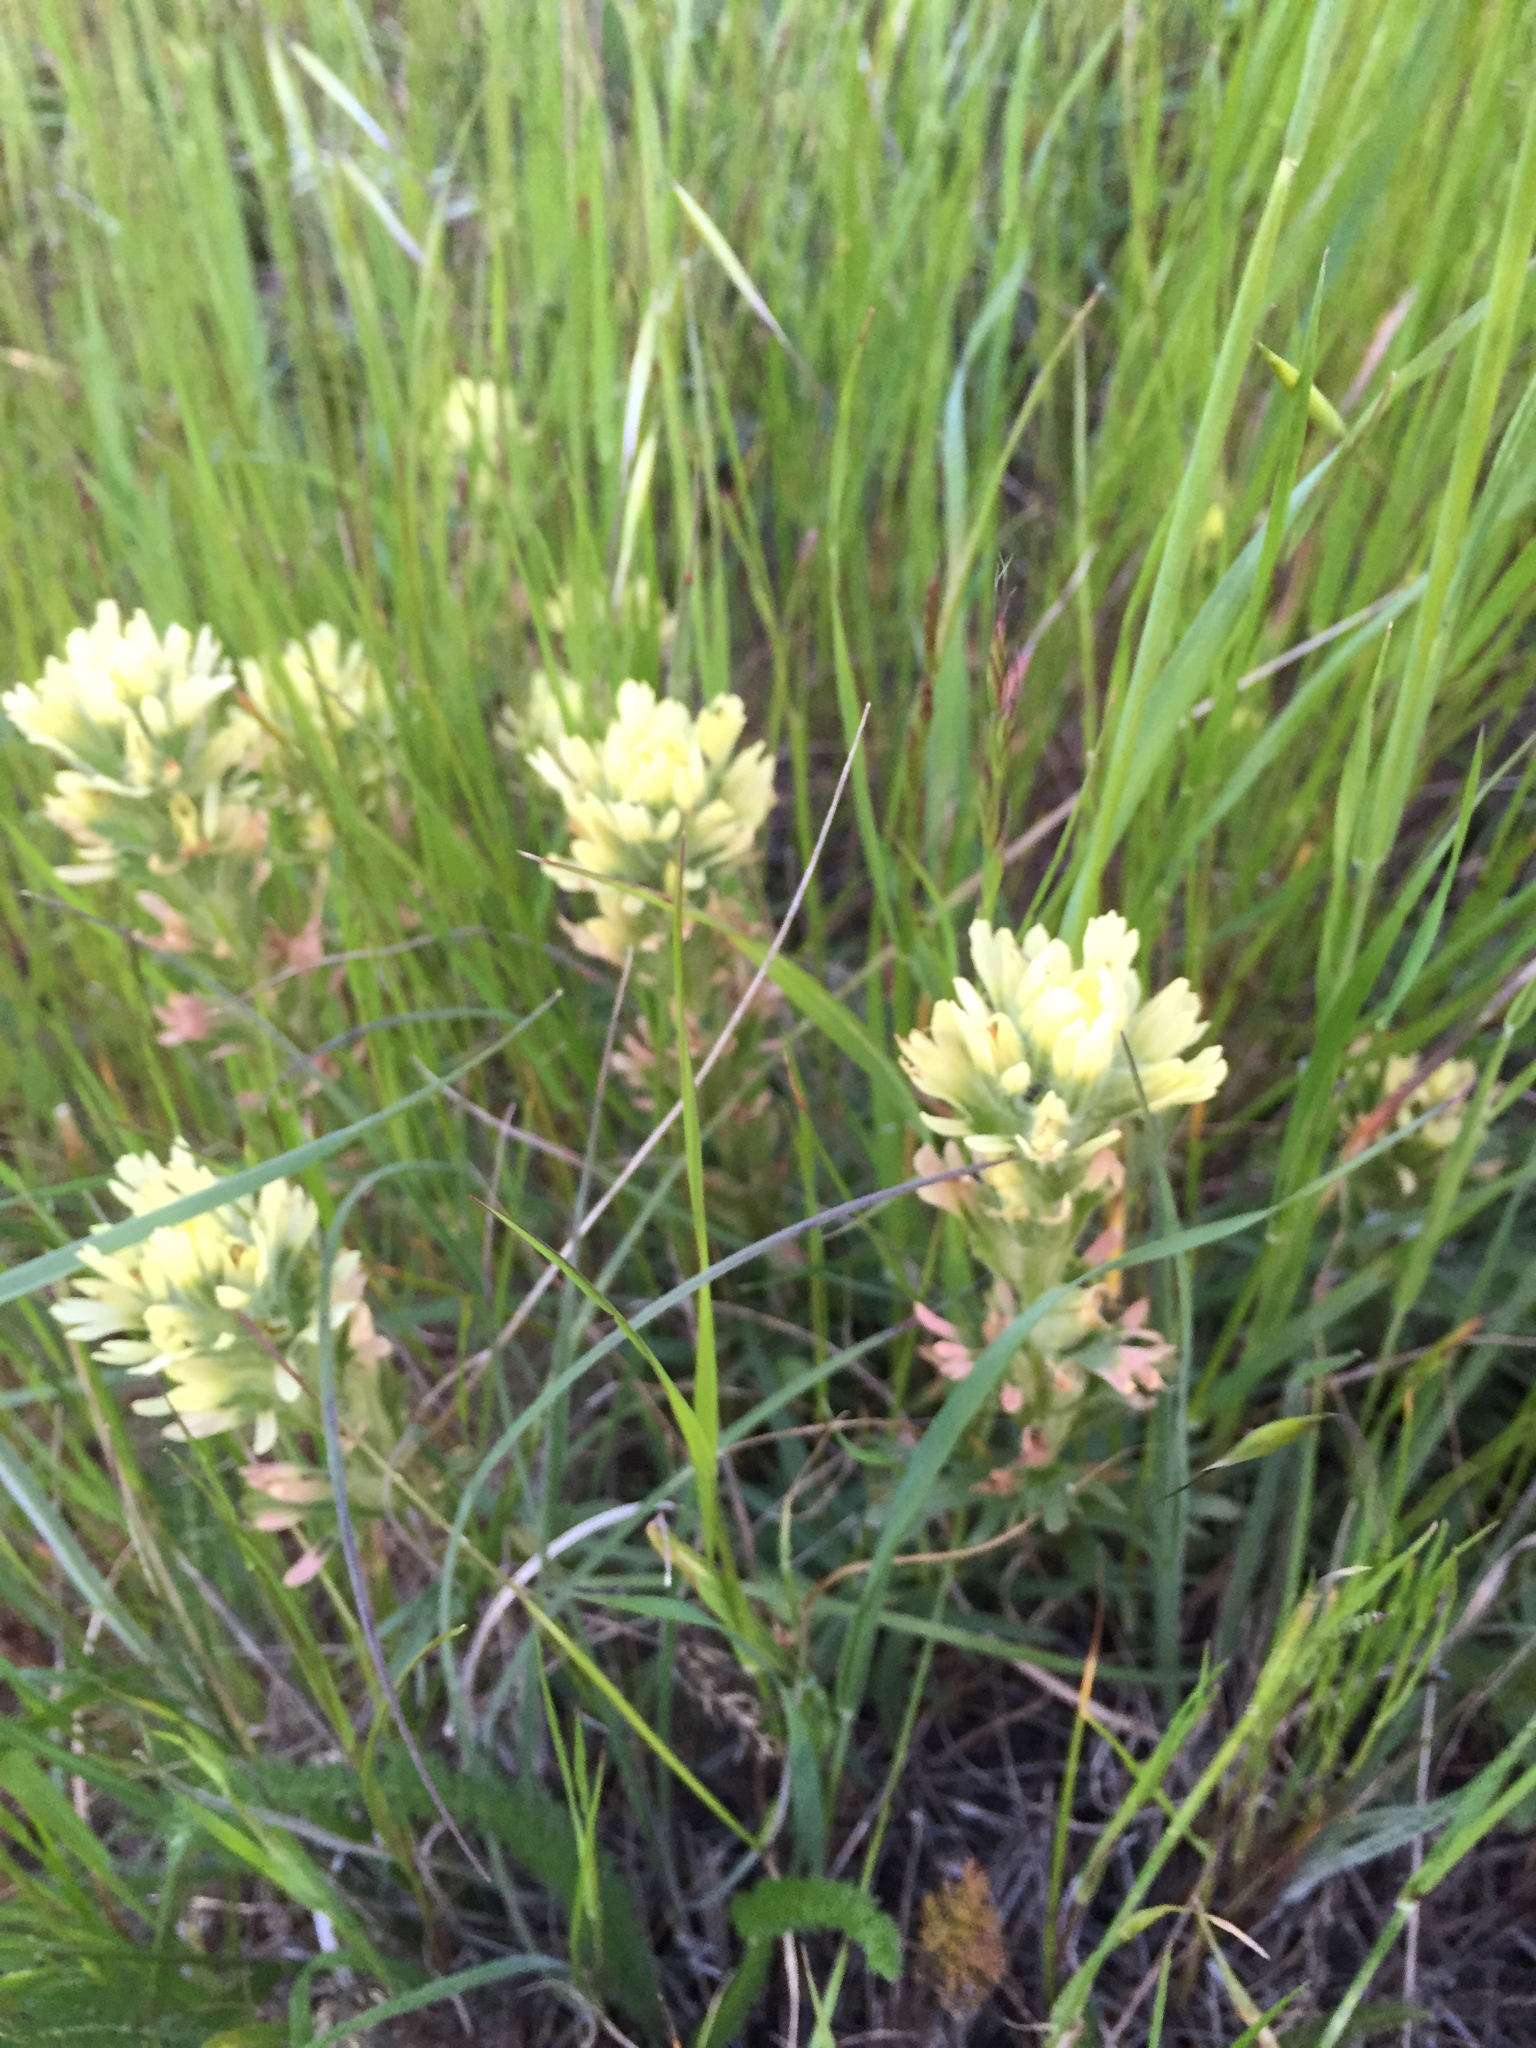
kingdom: Plantae
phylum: Tracheophyta
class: Magnoliopsida
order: Lamiales
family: Orobanchaceae
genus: Castilleja
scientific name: Castilleja affinis
